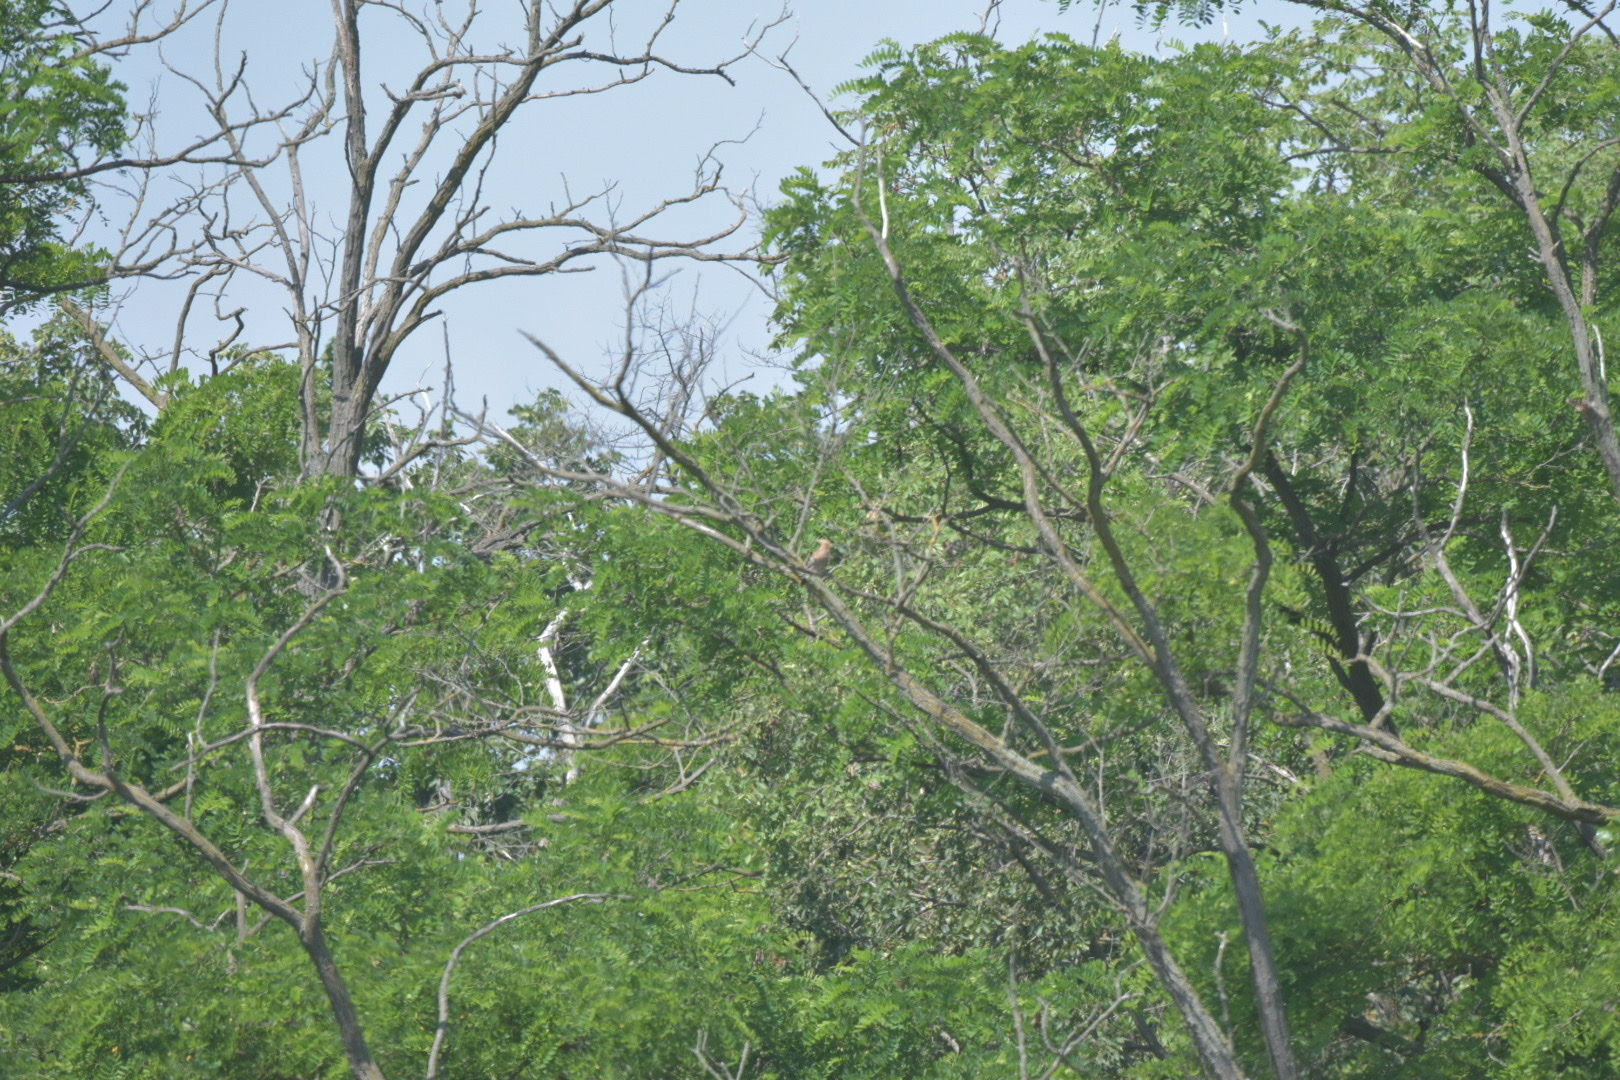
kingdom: Animalia
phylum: Chordata
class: Aves
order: Bucerotiformes
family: Upupidae
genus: Upupa
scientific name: Upupa epops
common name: Eurasian hoopoe
